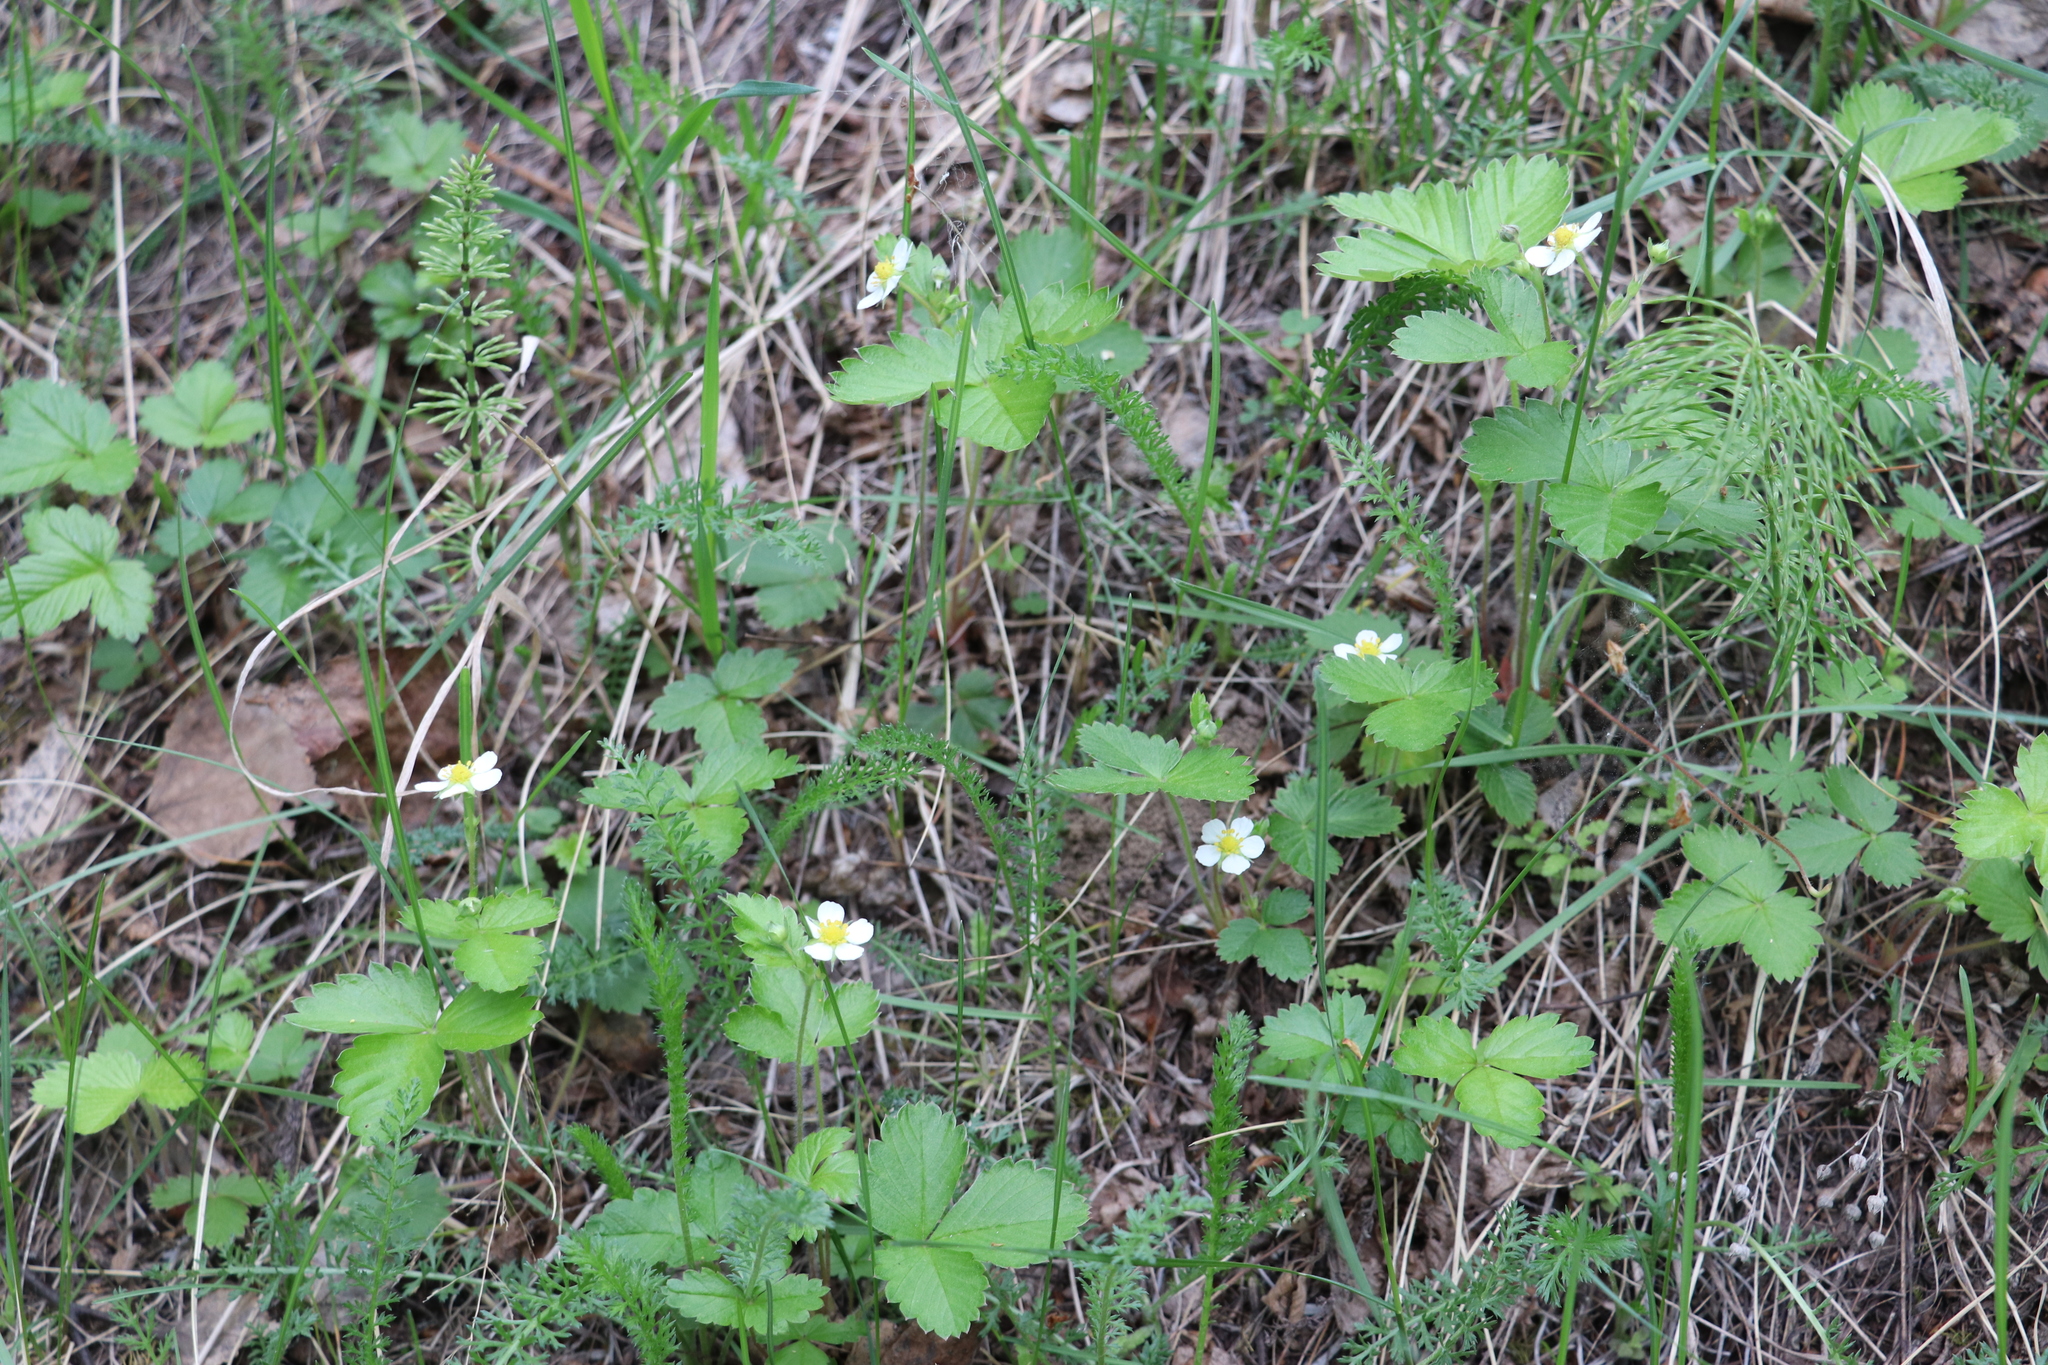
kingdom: Plantae
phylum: Tracheophyta
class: Magnoliopsida
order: Rosales
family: Rosaceae
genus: Fragaria
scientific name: Fragaria vesca
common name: Wild strawberry
